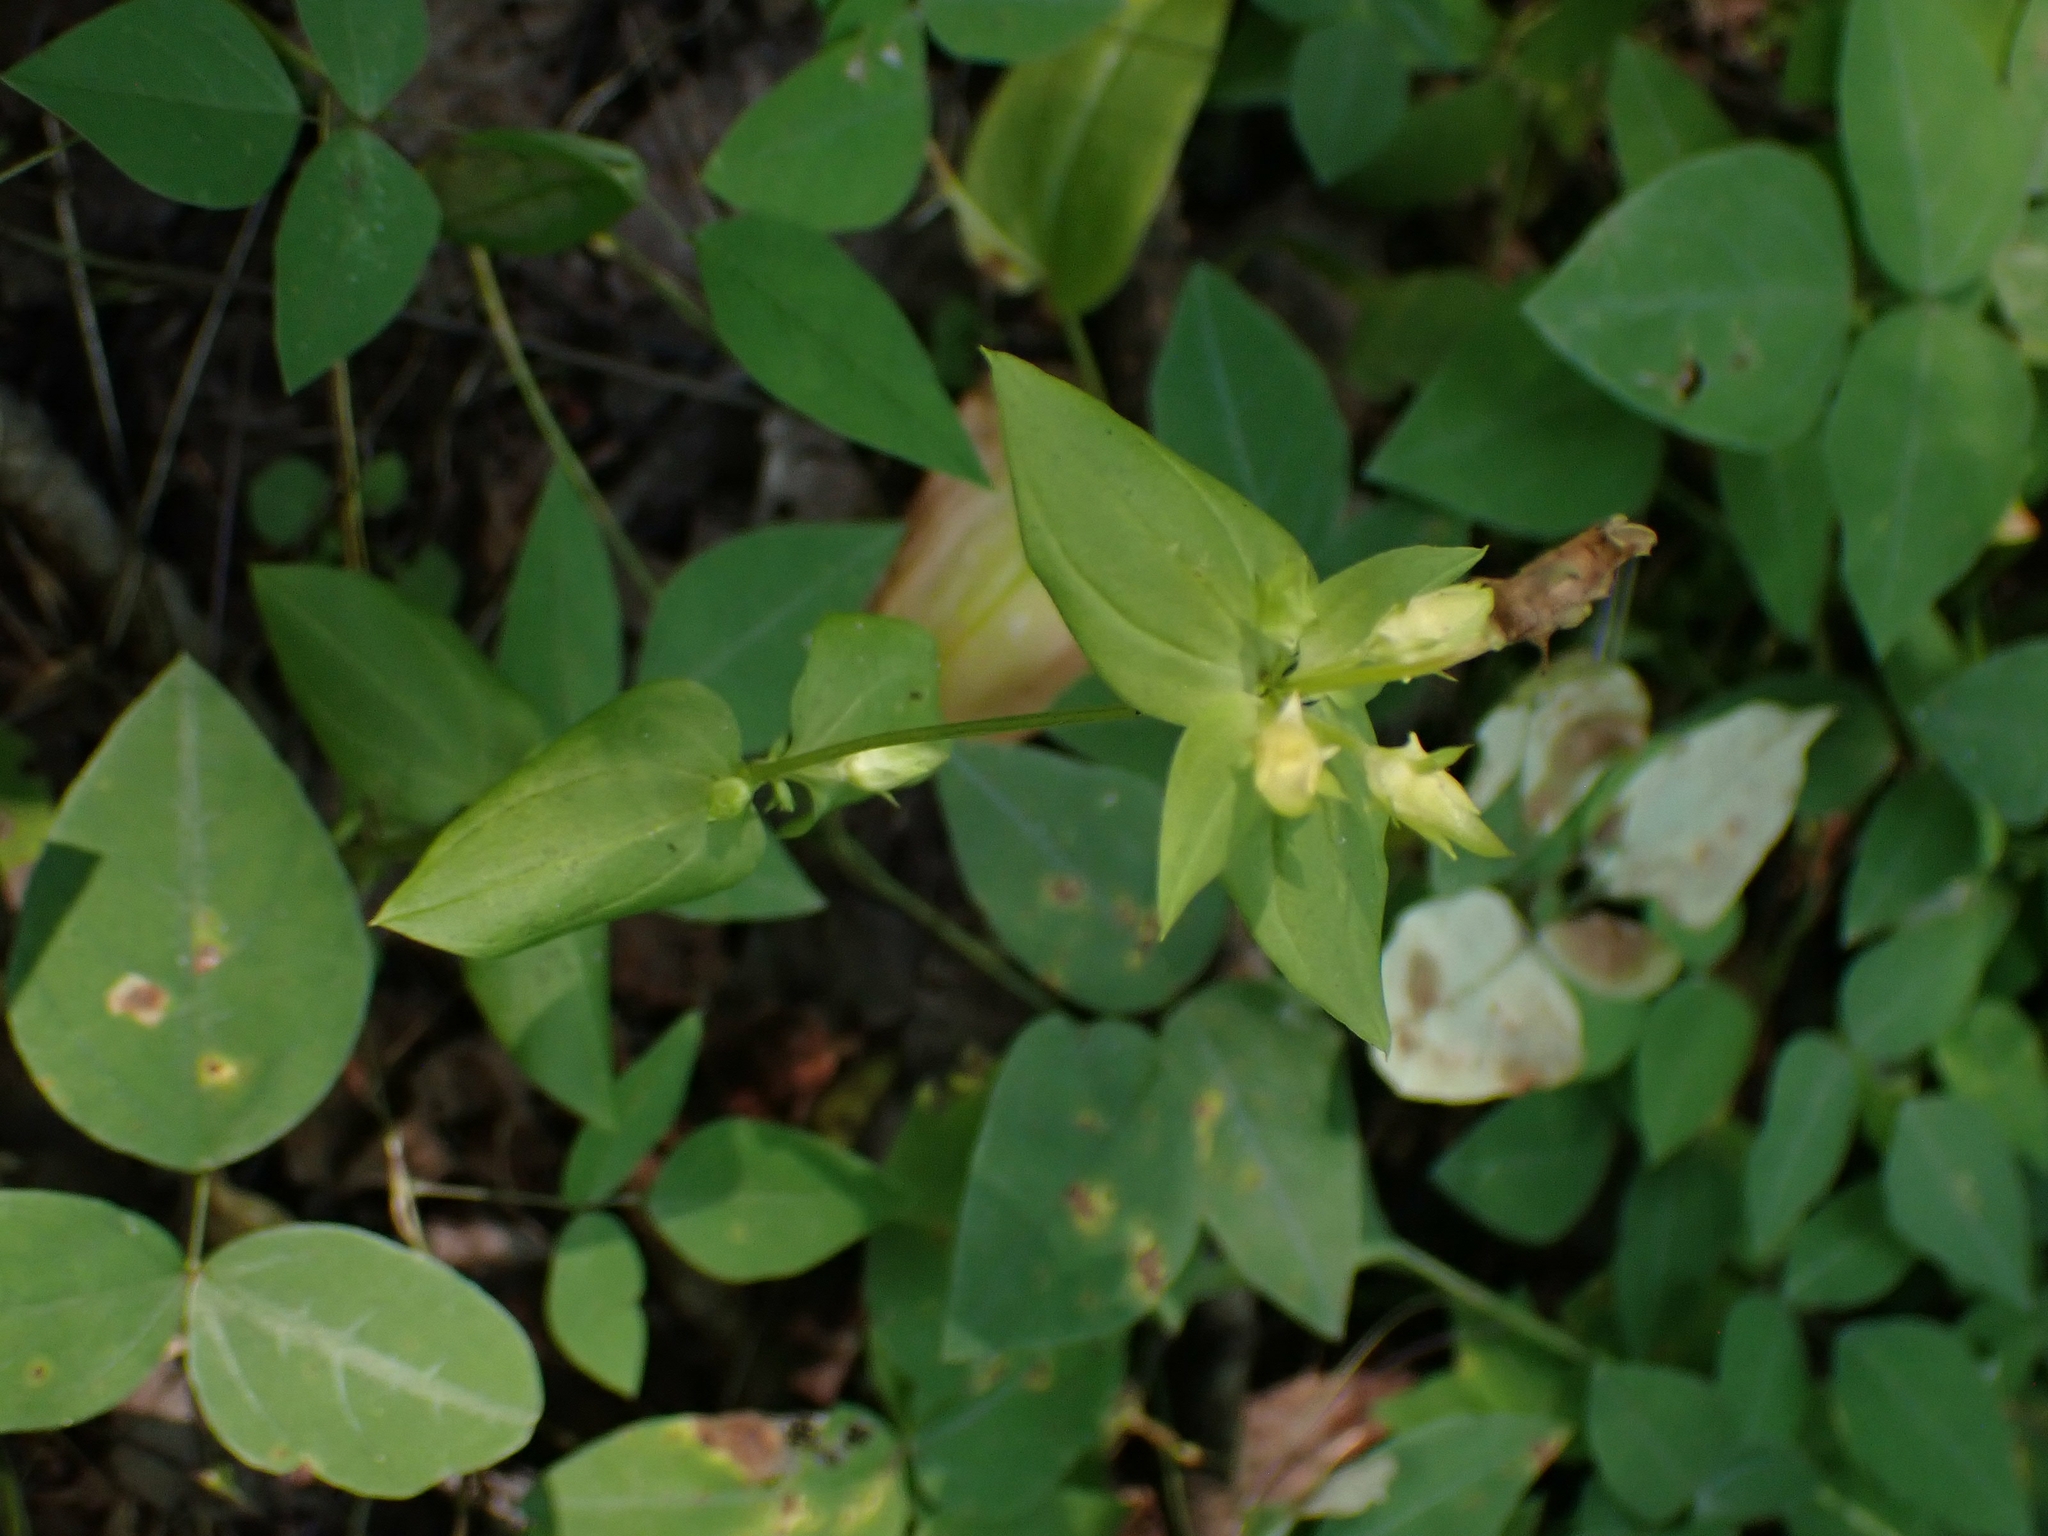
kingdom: Plantae
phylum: Tracheophyta
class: Magnoliopsida
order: Gentianales
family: Gentianaceae
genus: Halenia
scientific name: Halenia deflexa
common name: American spurred gentian
